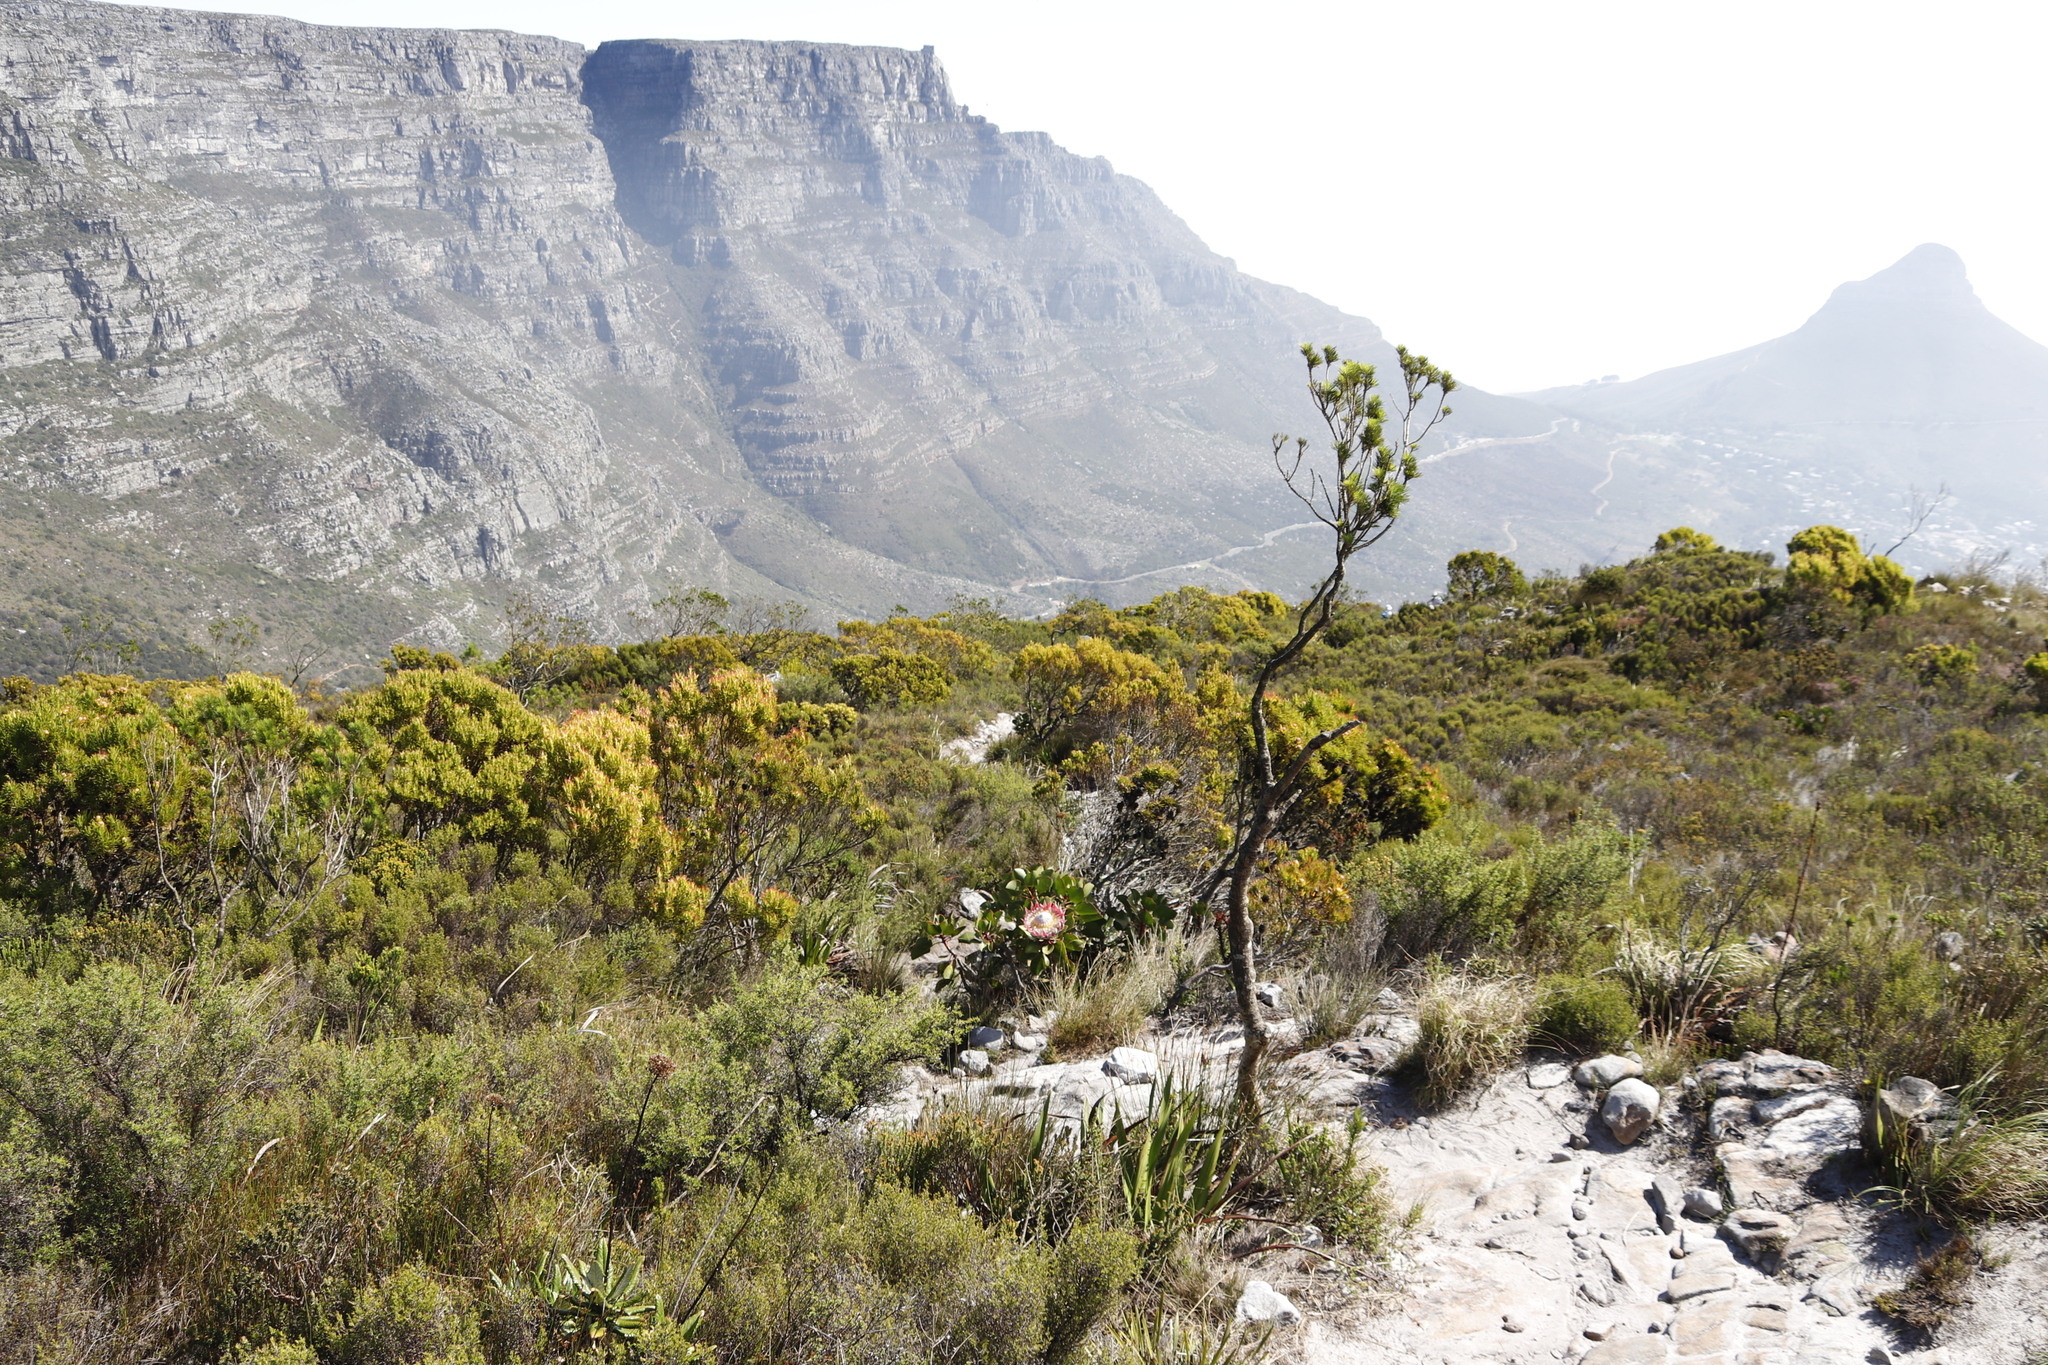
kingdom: Plantae
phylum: Tracheophyta
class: Magnoliopsida
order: Proteales
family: Proteaceae
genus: Leucadendron
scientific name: Leucadendron xanthoconus
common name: Sickle-leaf conebush
